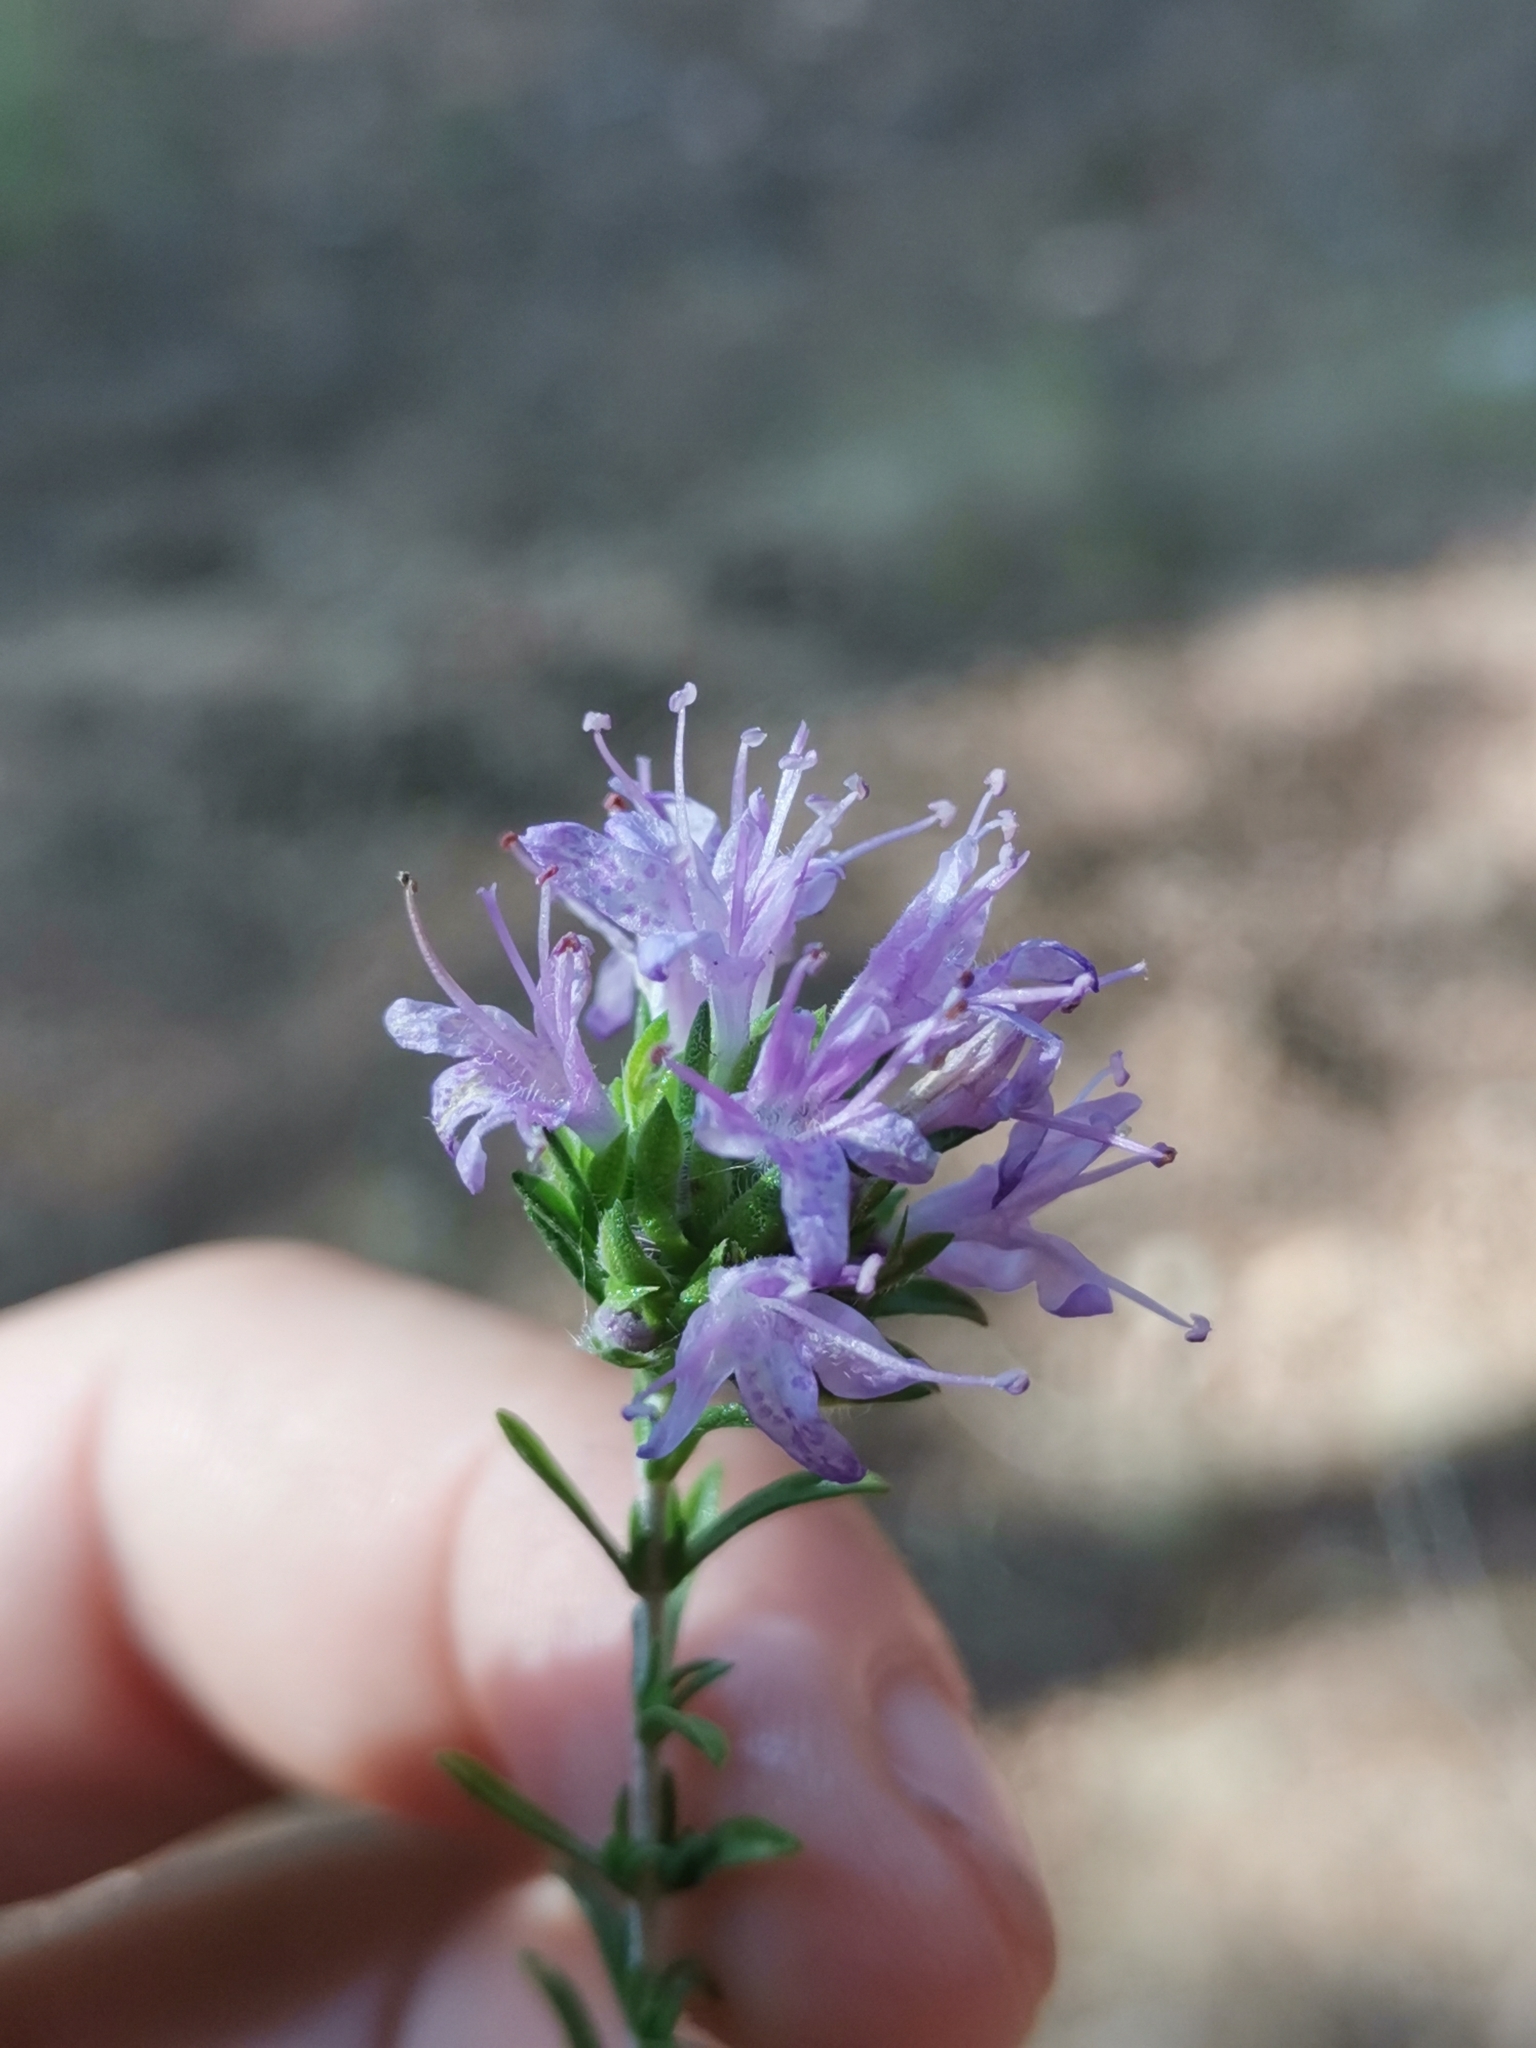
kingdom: Plantae
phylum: Tracheophyta
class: Magnoliopsida
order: Lamiales
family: Lamiaceae
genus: Thymbra
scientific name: Thymbra capitata
